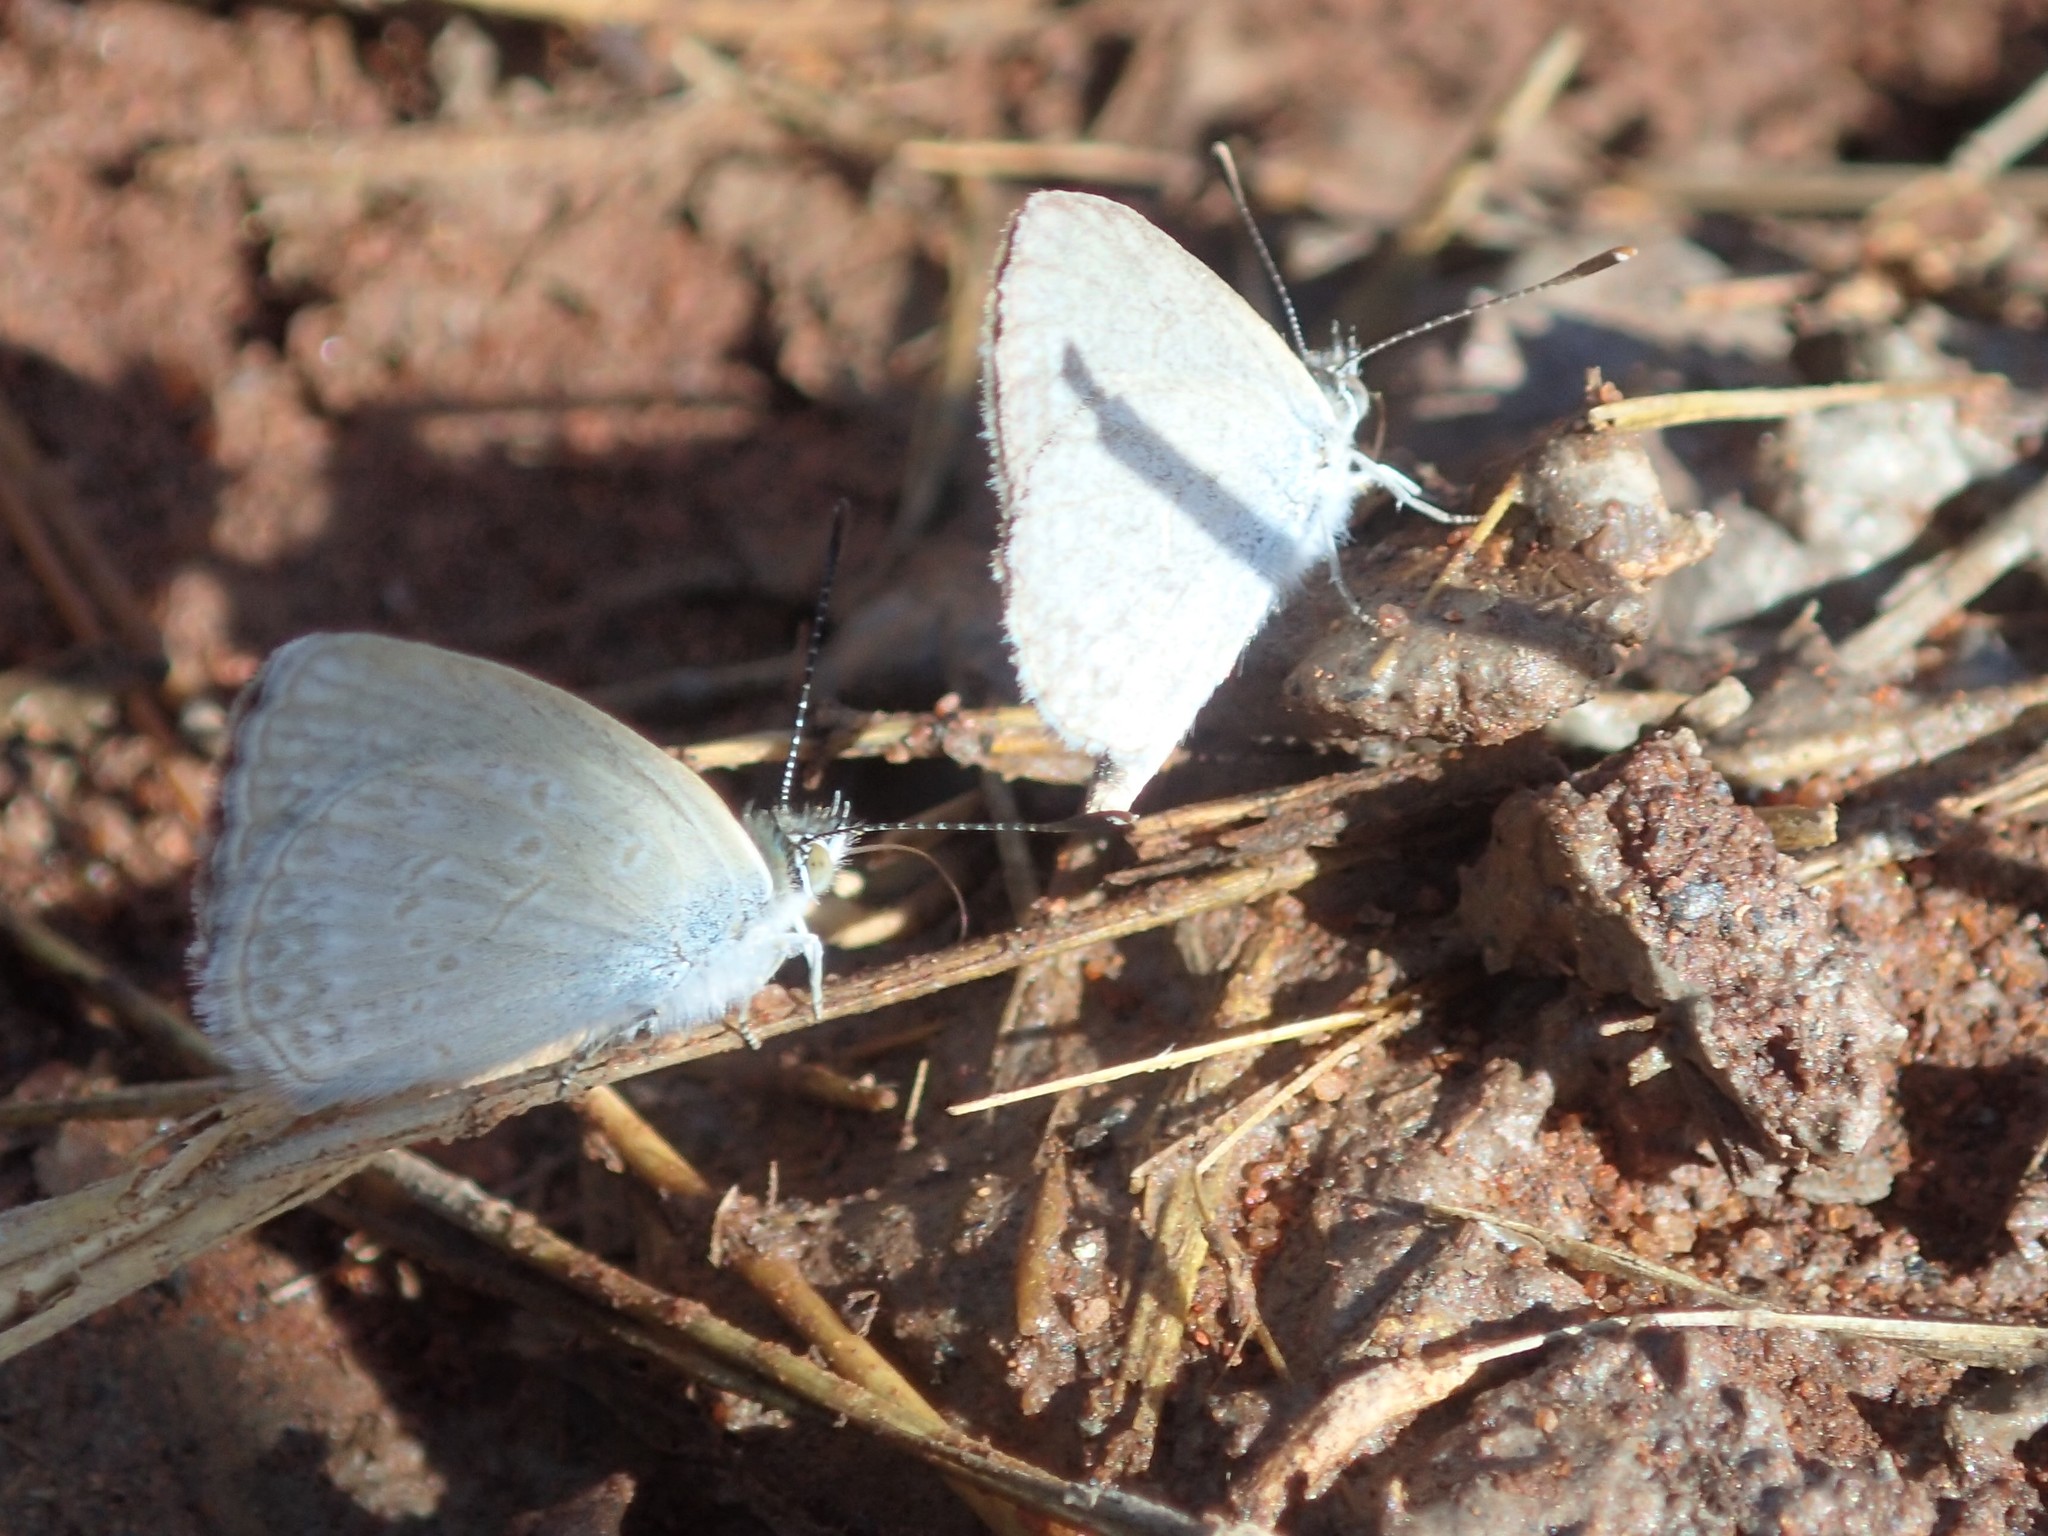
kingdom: Animalia
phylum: Arthropoda
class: Insecta
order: Lepidoptera
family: Lycaenidae
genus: Zizina
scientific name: Zizina labradus
